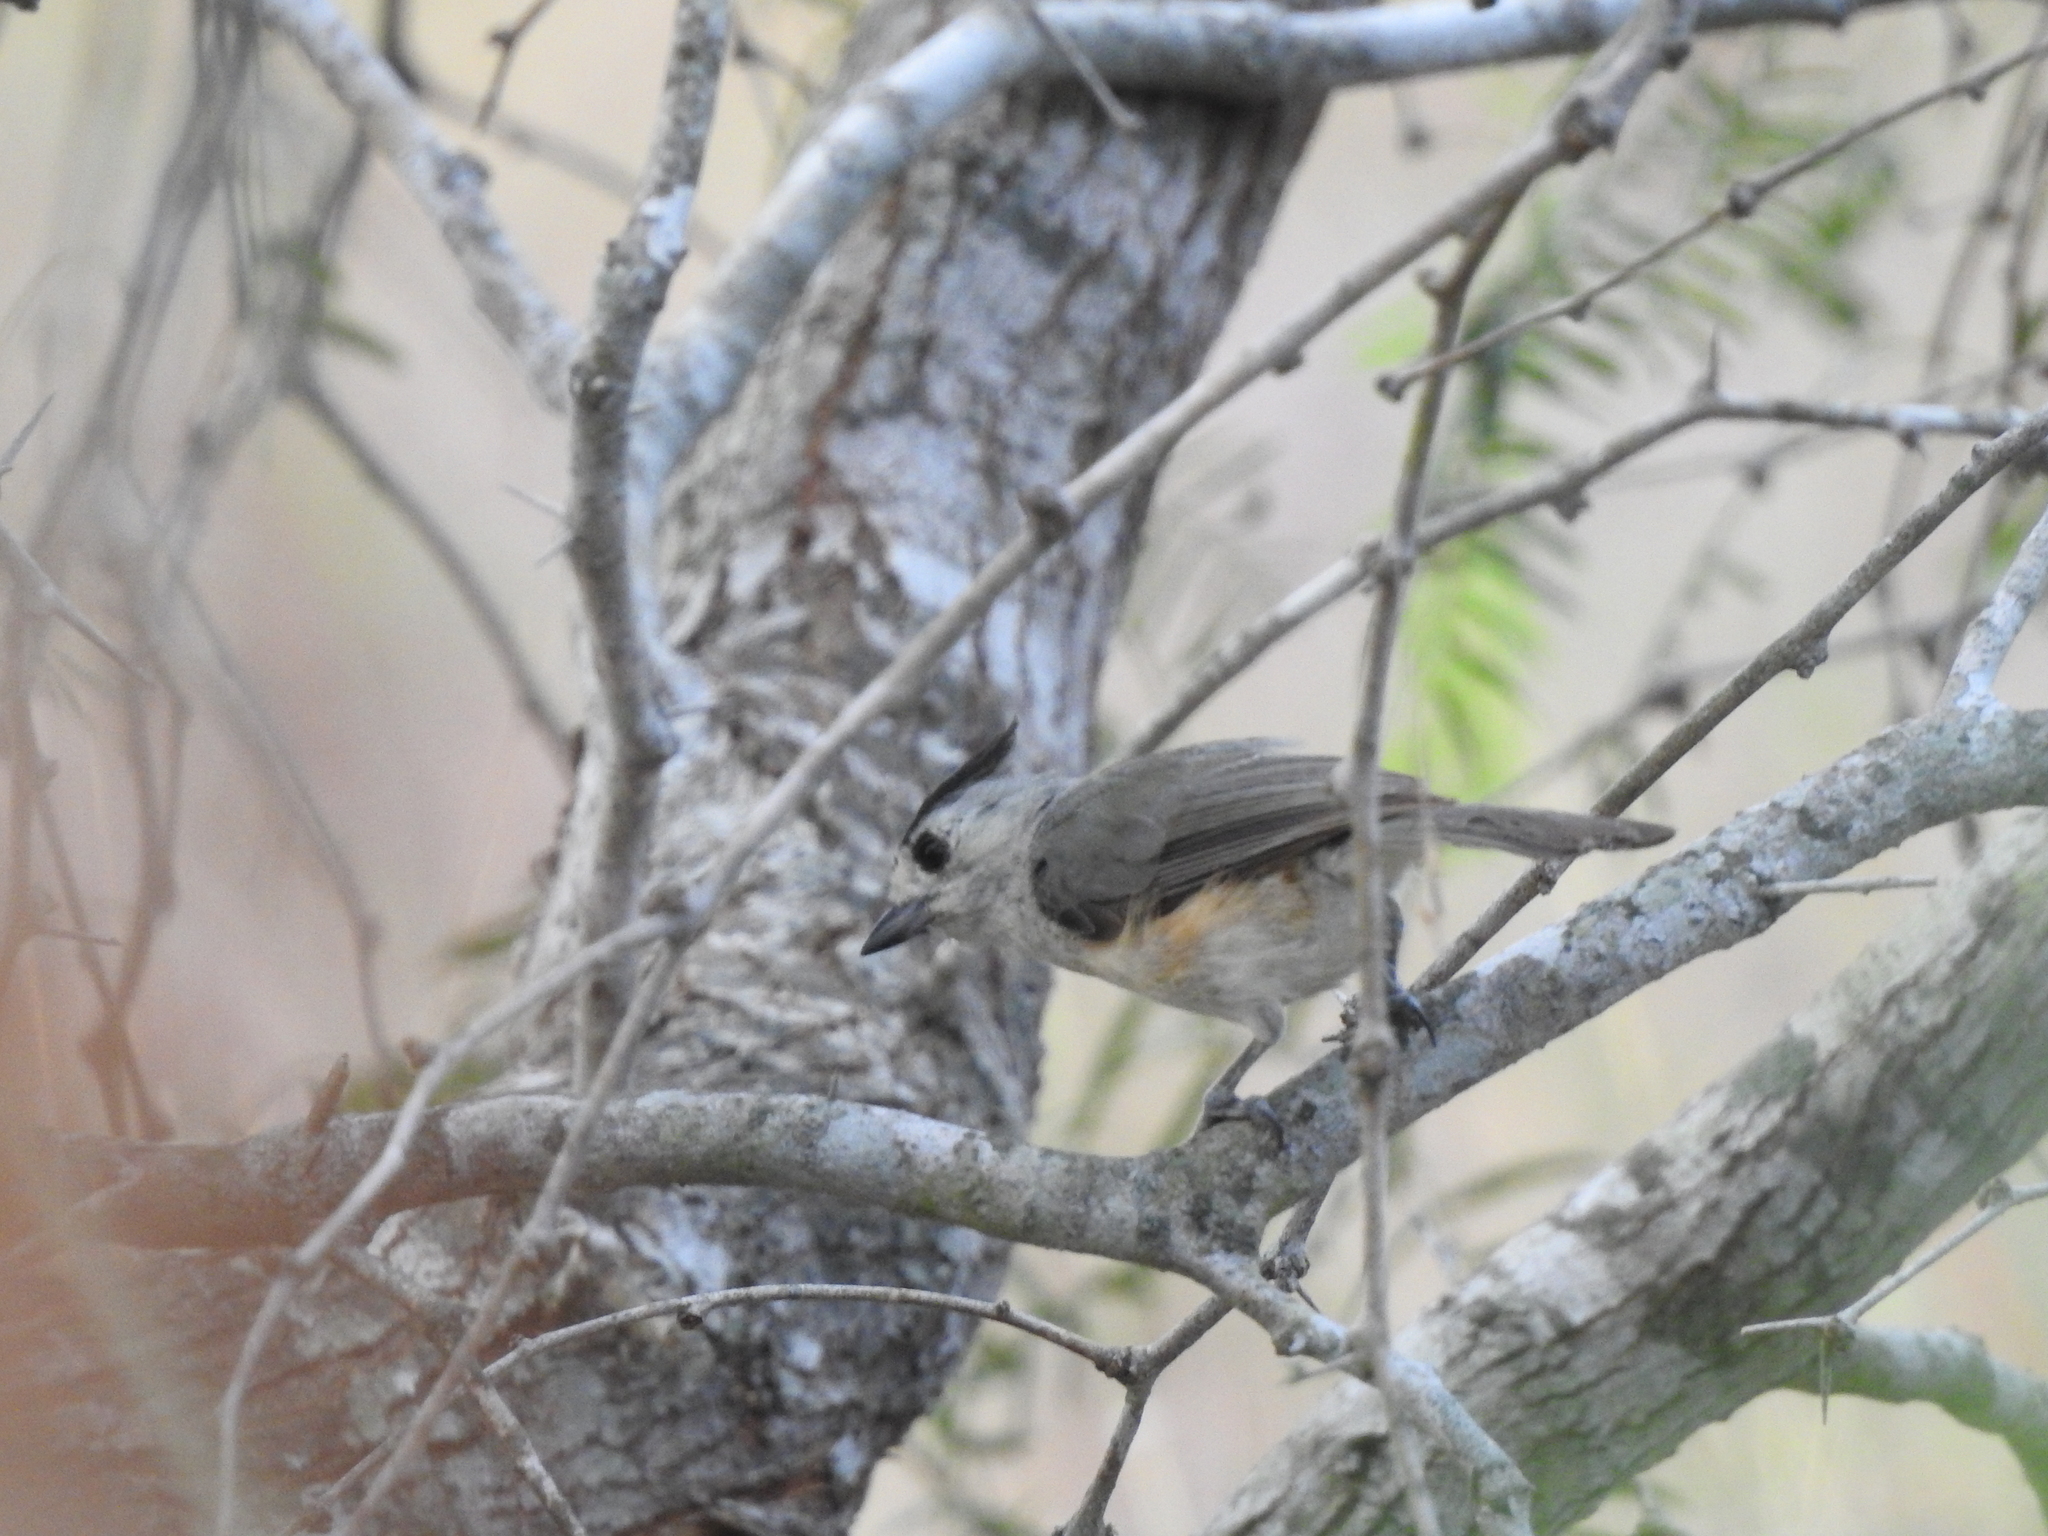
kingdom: Animalia
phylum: Chordata
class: Aves
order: Passeriformes
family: Paridae
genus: Baeolophus
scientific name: Baeolophus atricristatus
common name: Black-crested titmouse
